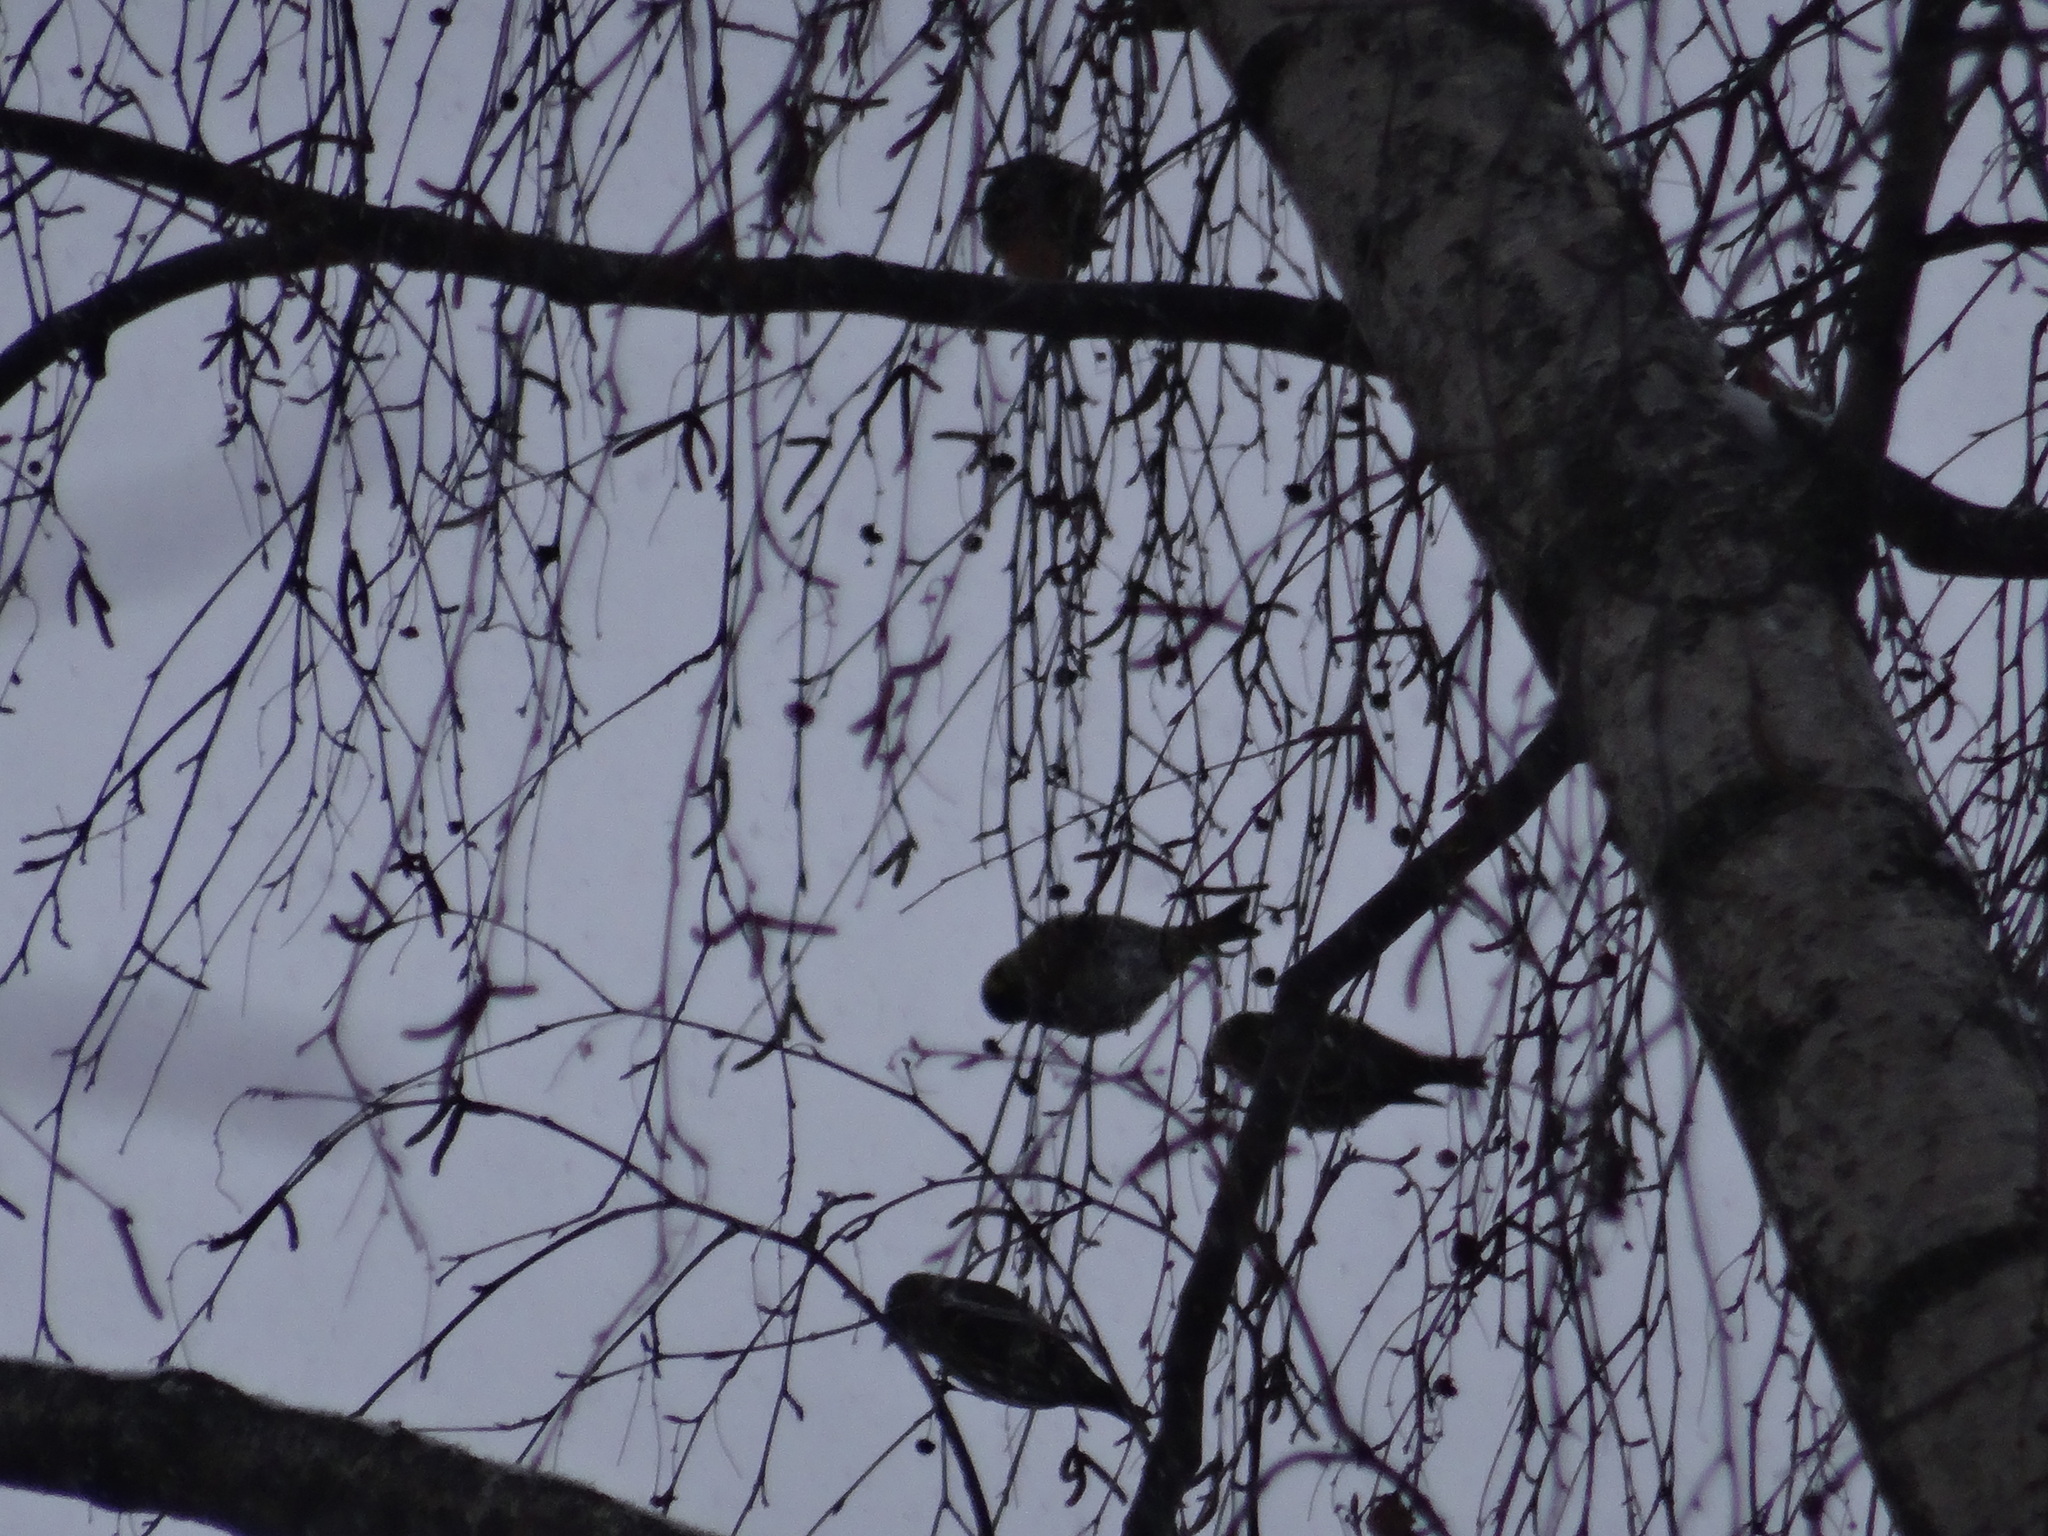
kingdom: Animalia
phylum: Chordata
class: Aves
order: Passeriformes
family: Fringillidae
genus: Spinus
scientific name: Spinus spinus
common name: Eurasian siskin
